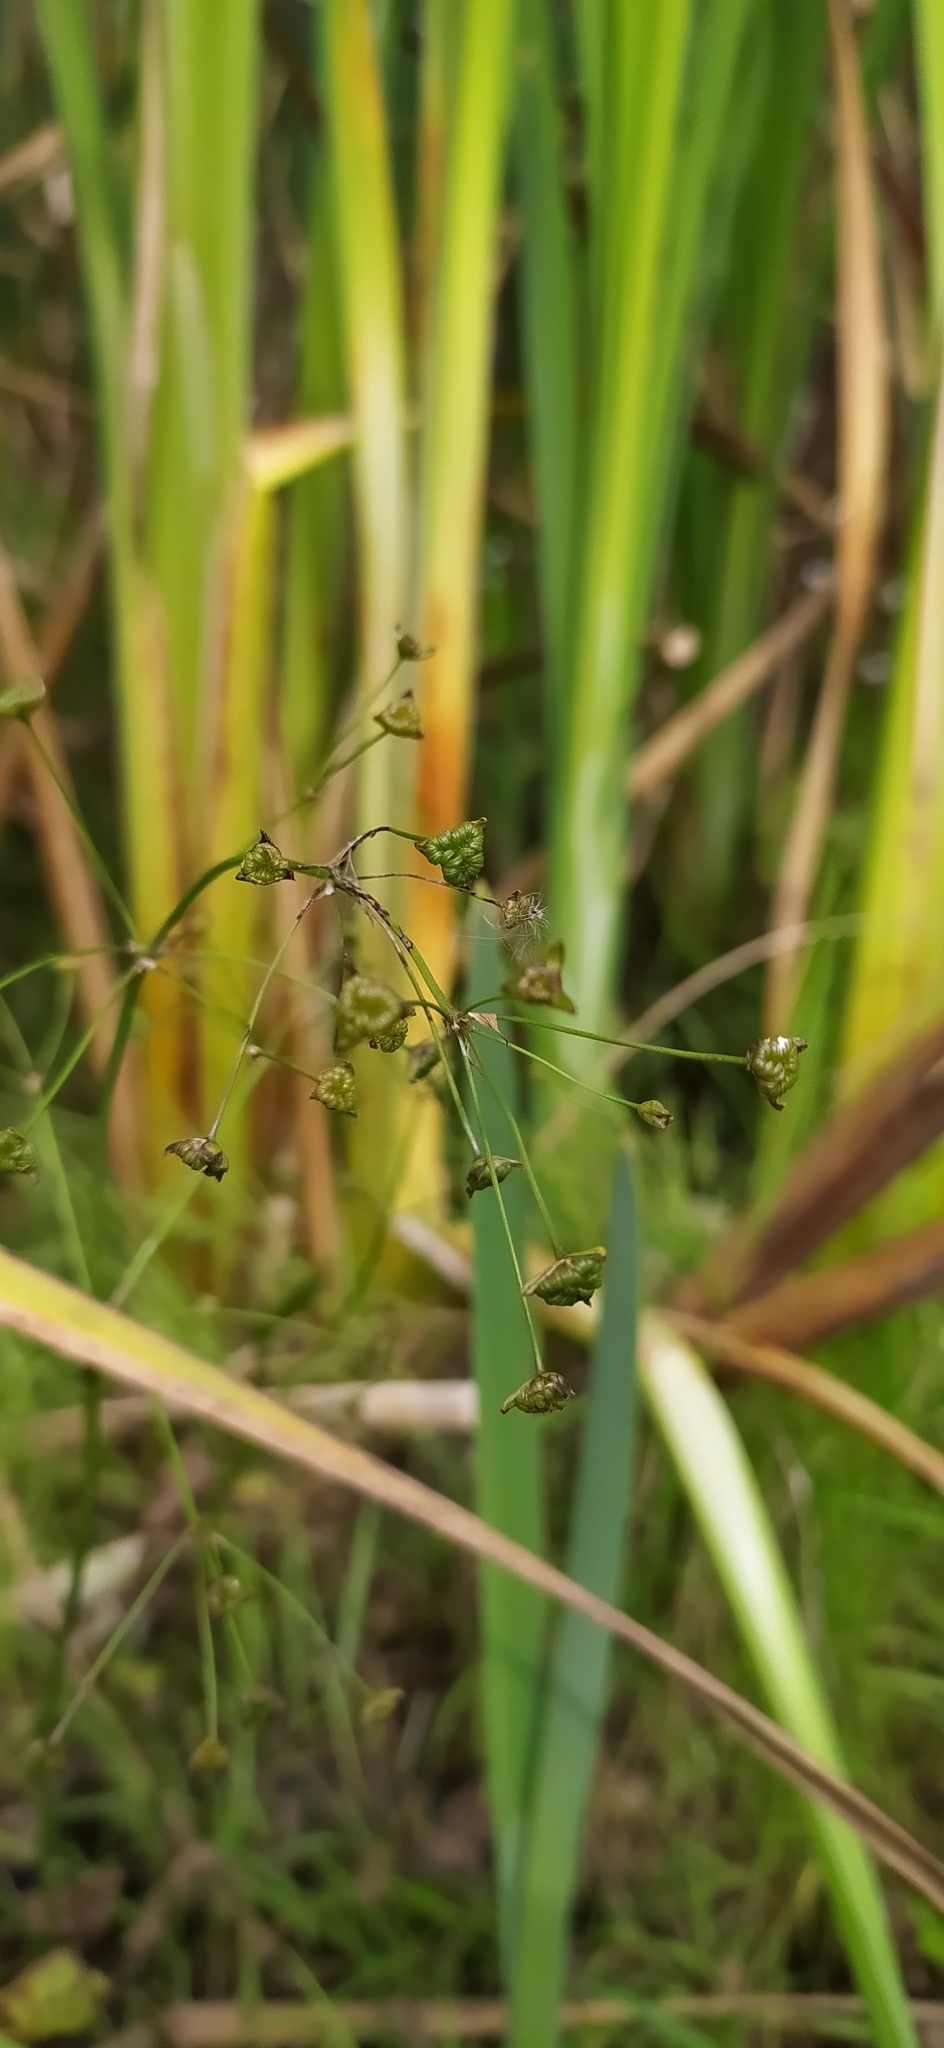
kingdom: Plantae
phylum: Tracheophyta
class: Liliopsida
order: Alismatales
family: Alismataceae
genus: Alisma
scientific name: Alisma plantago-aquatica
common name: Water-plantain
